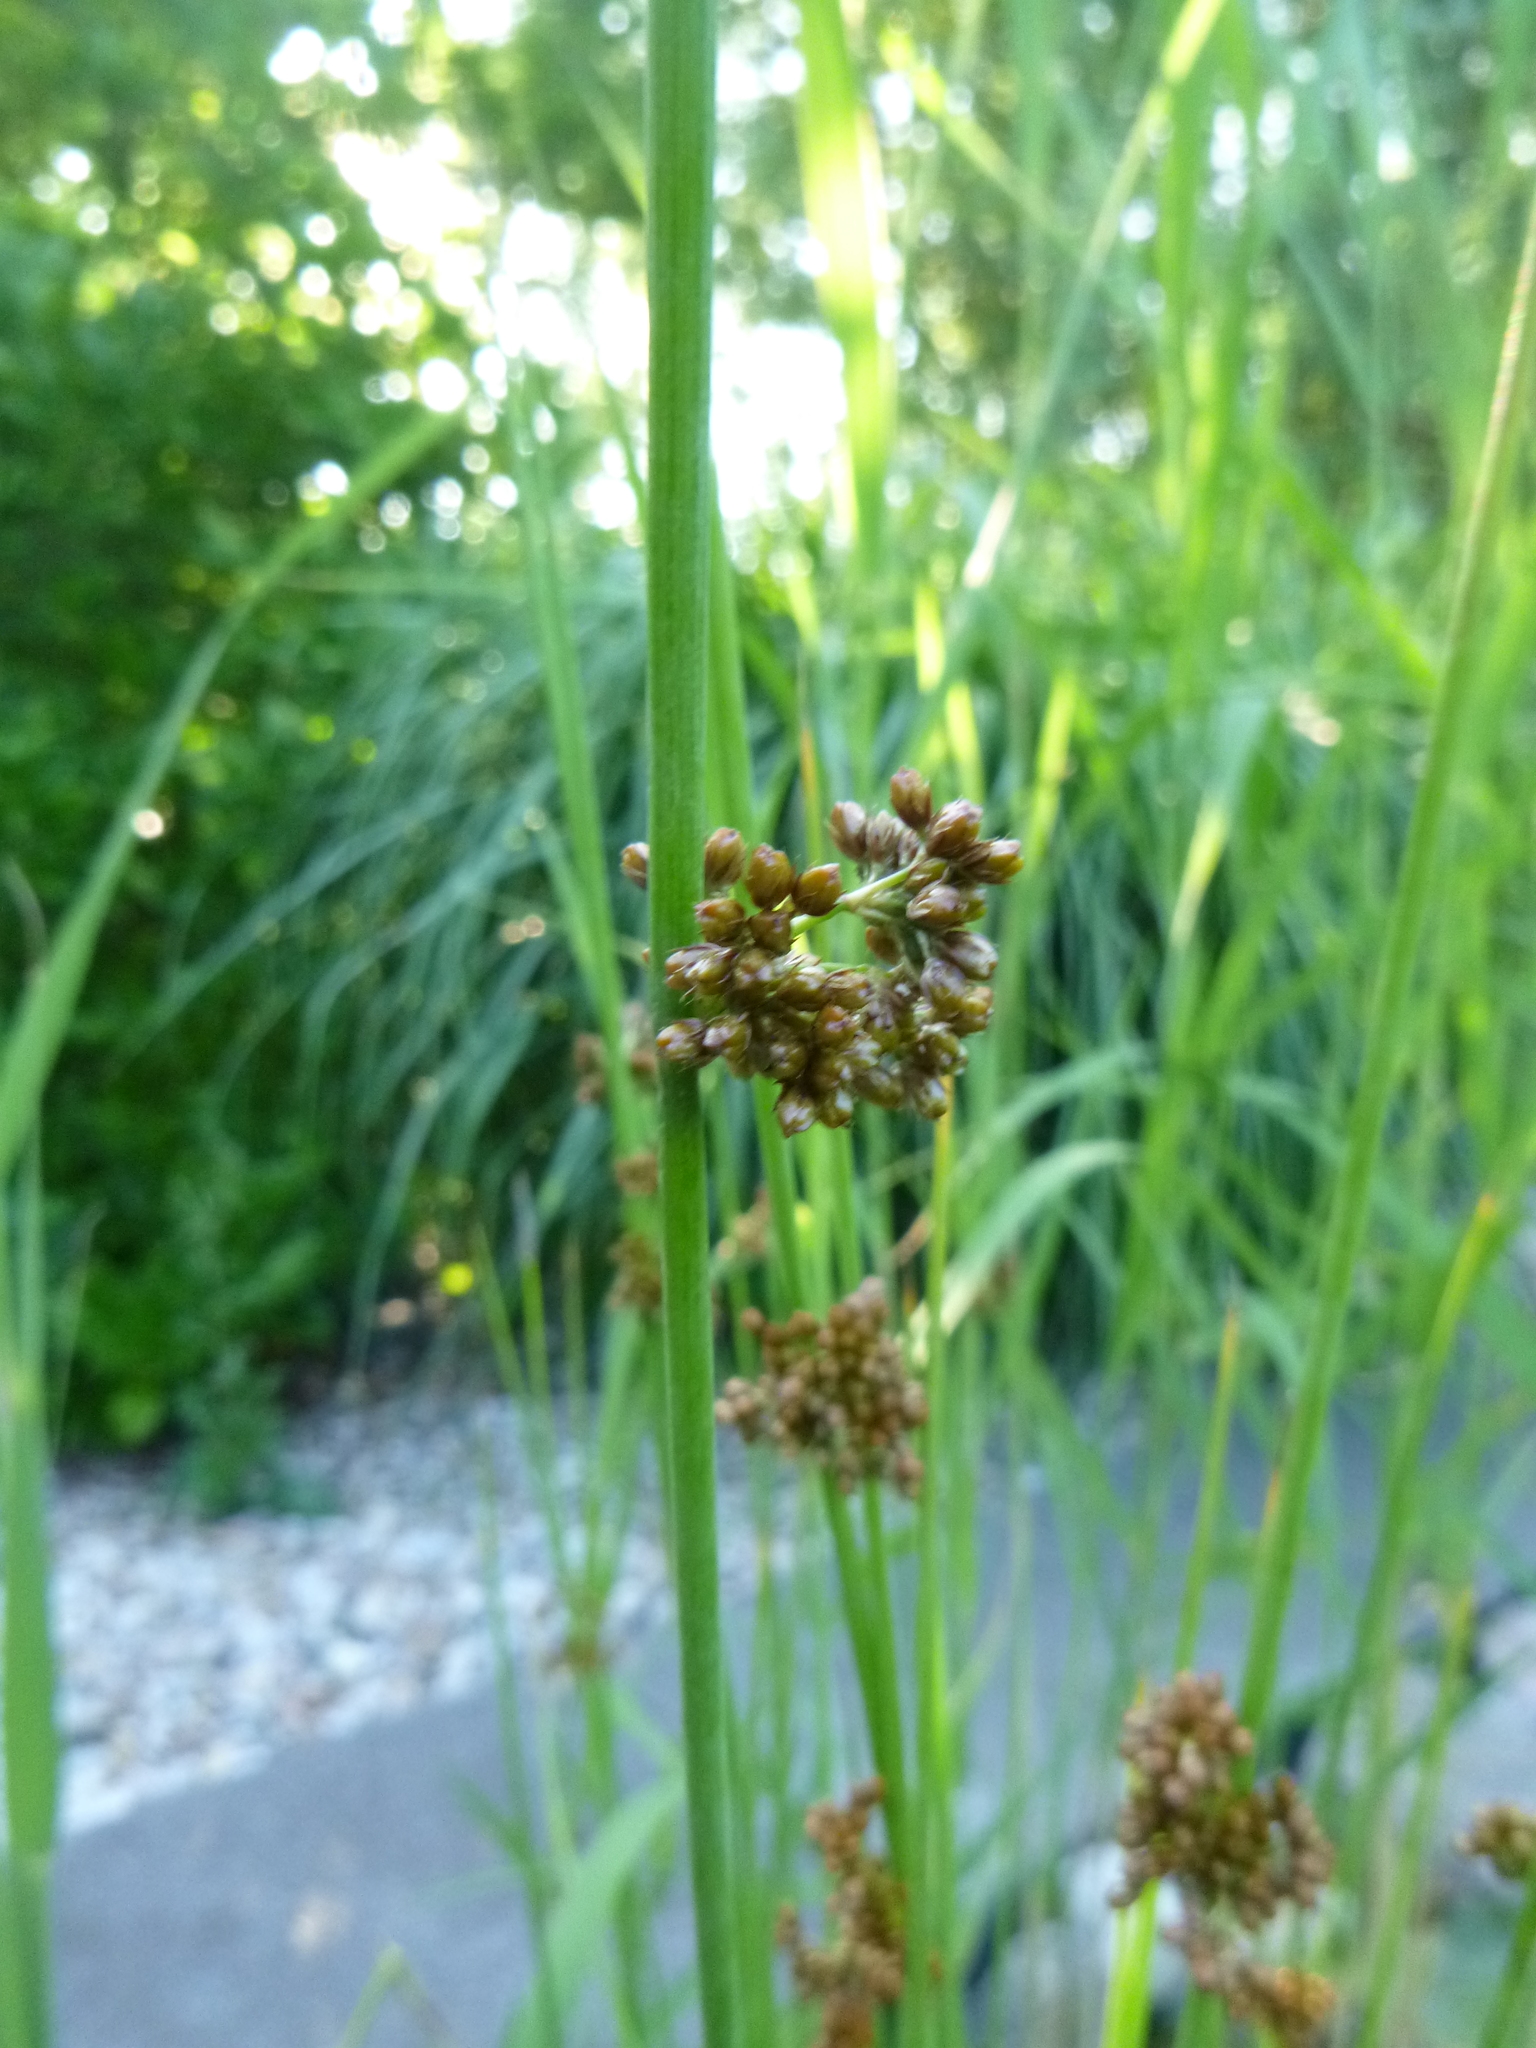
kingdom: Plantae
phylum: Tracheophyta
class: Liliopsida
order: Poales
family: Juncaceae
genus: Juncus
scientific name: Juncus effusus
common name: Soft rush
